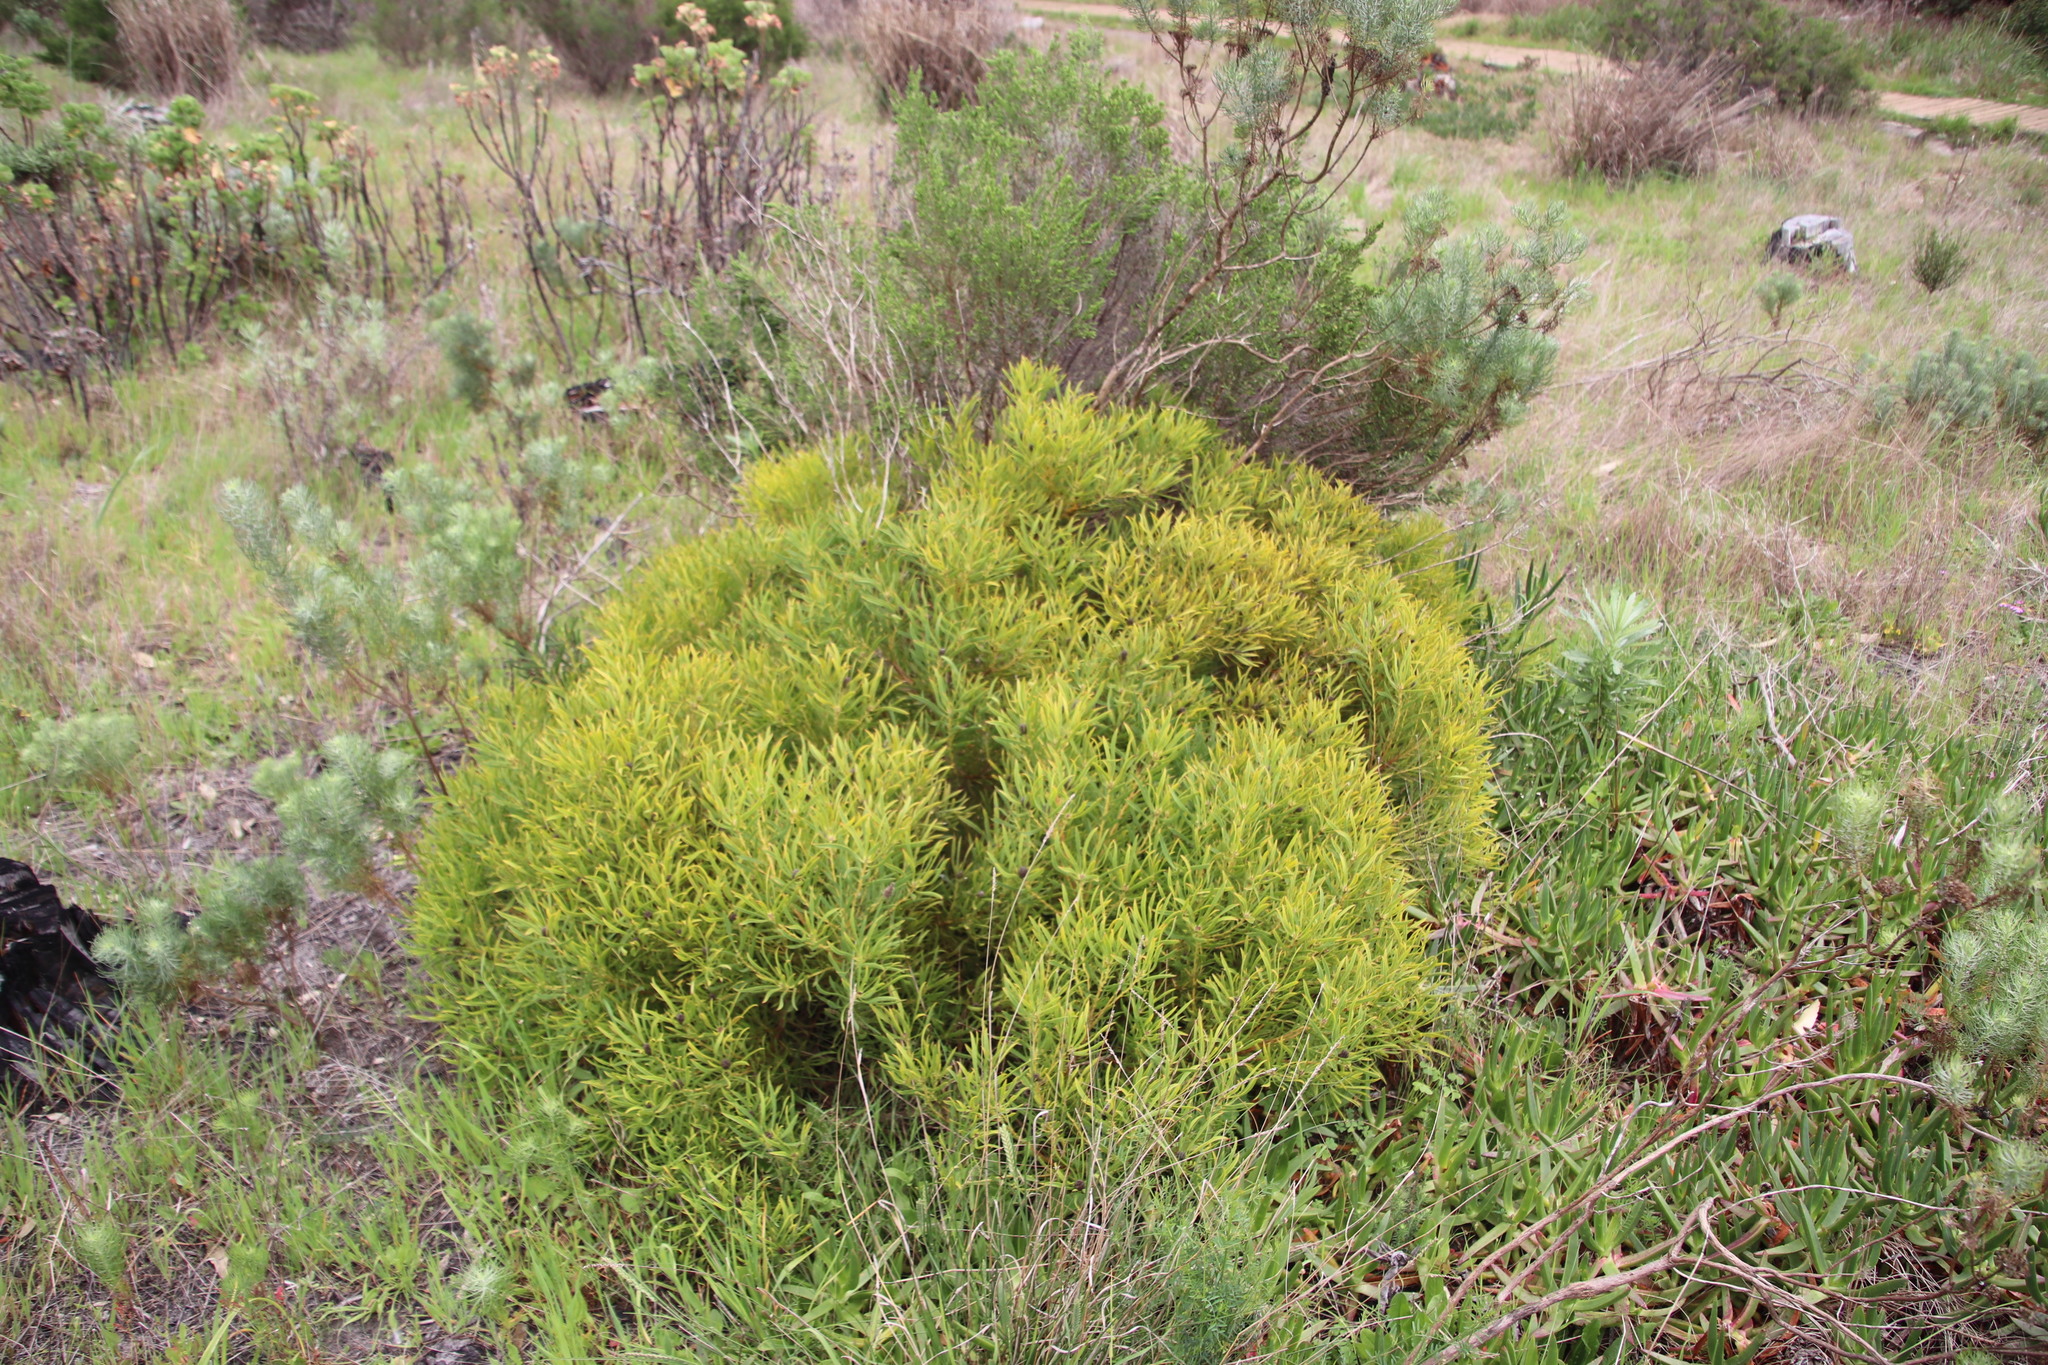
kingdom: Plantae
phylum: Tracheophyta
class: Magnoliopsida
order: Proteales
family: Proteaceae
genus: Leucadendron
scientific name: Leucadendron salignum
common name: Common sunshine conebush
